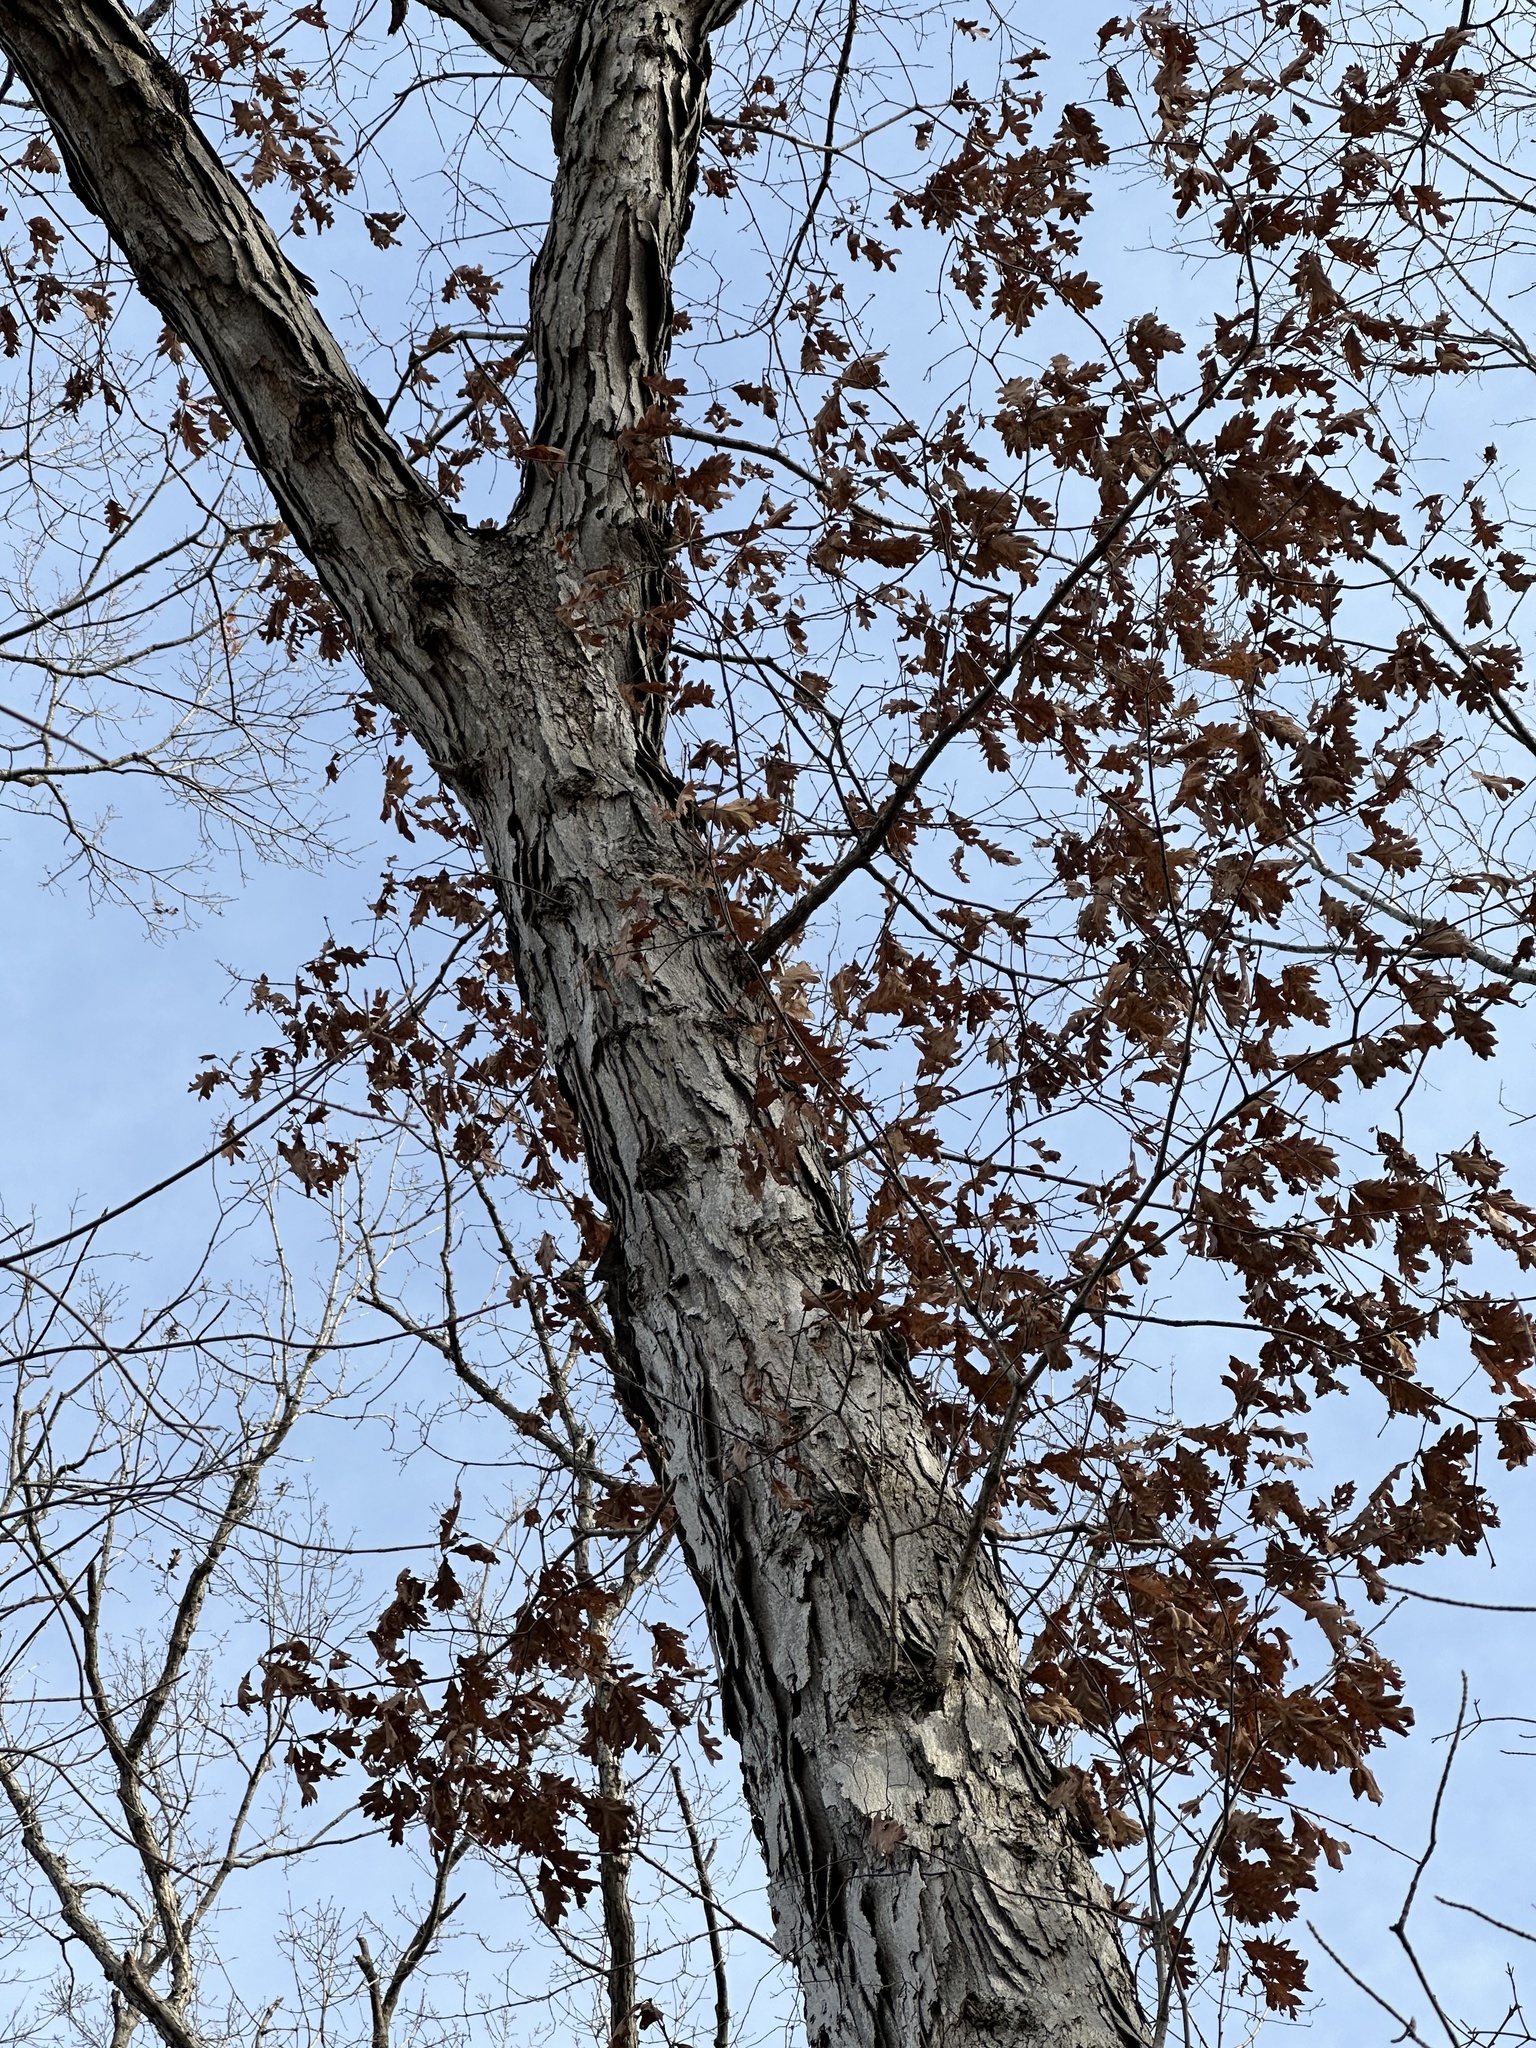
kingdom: Plantae
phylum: Tracheophyta
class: Magnoliopsida
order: Fagales
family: Fagaceae
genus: Quercus
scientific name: Quercus alba
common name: White oak
